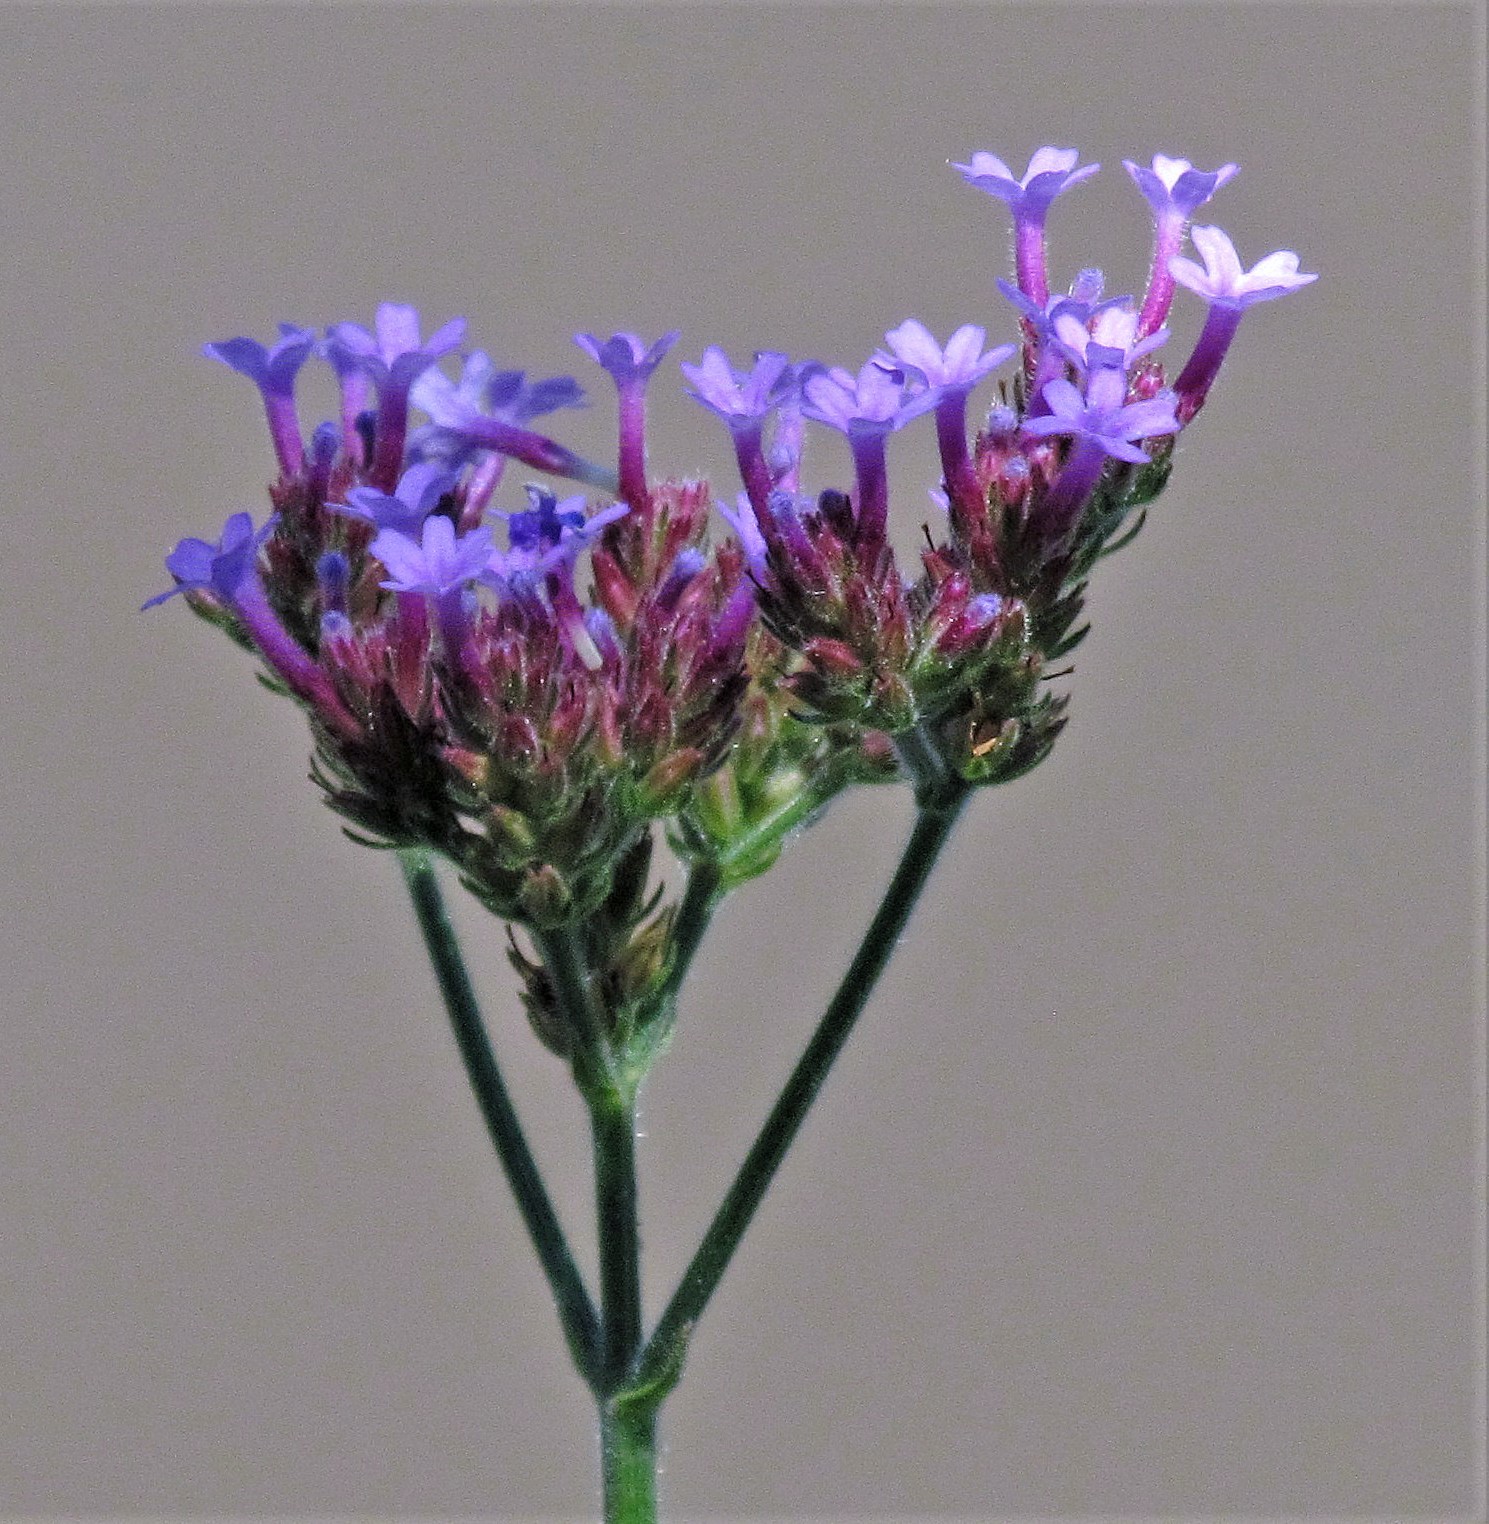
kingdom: Plantae
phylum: Tracheophyta
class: Magnoliopsida
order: Lamiales
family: Verbenaceae
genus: Verbena
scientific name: Verbena bonariensis
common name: Purpletop vervain
